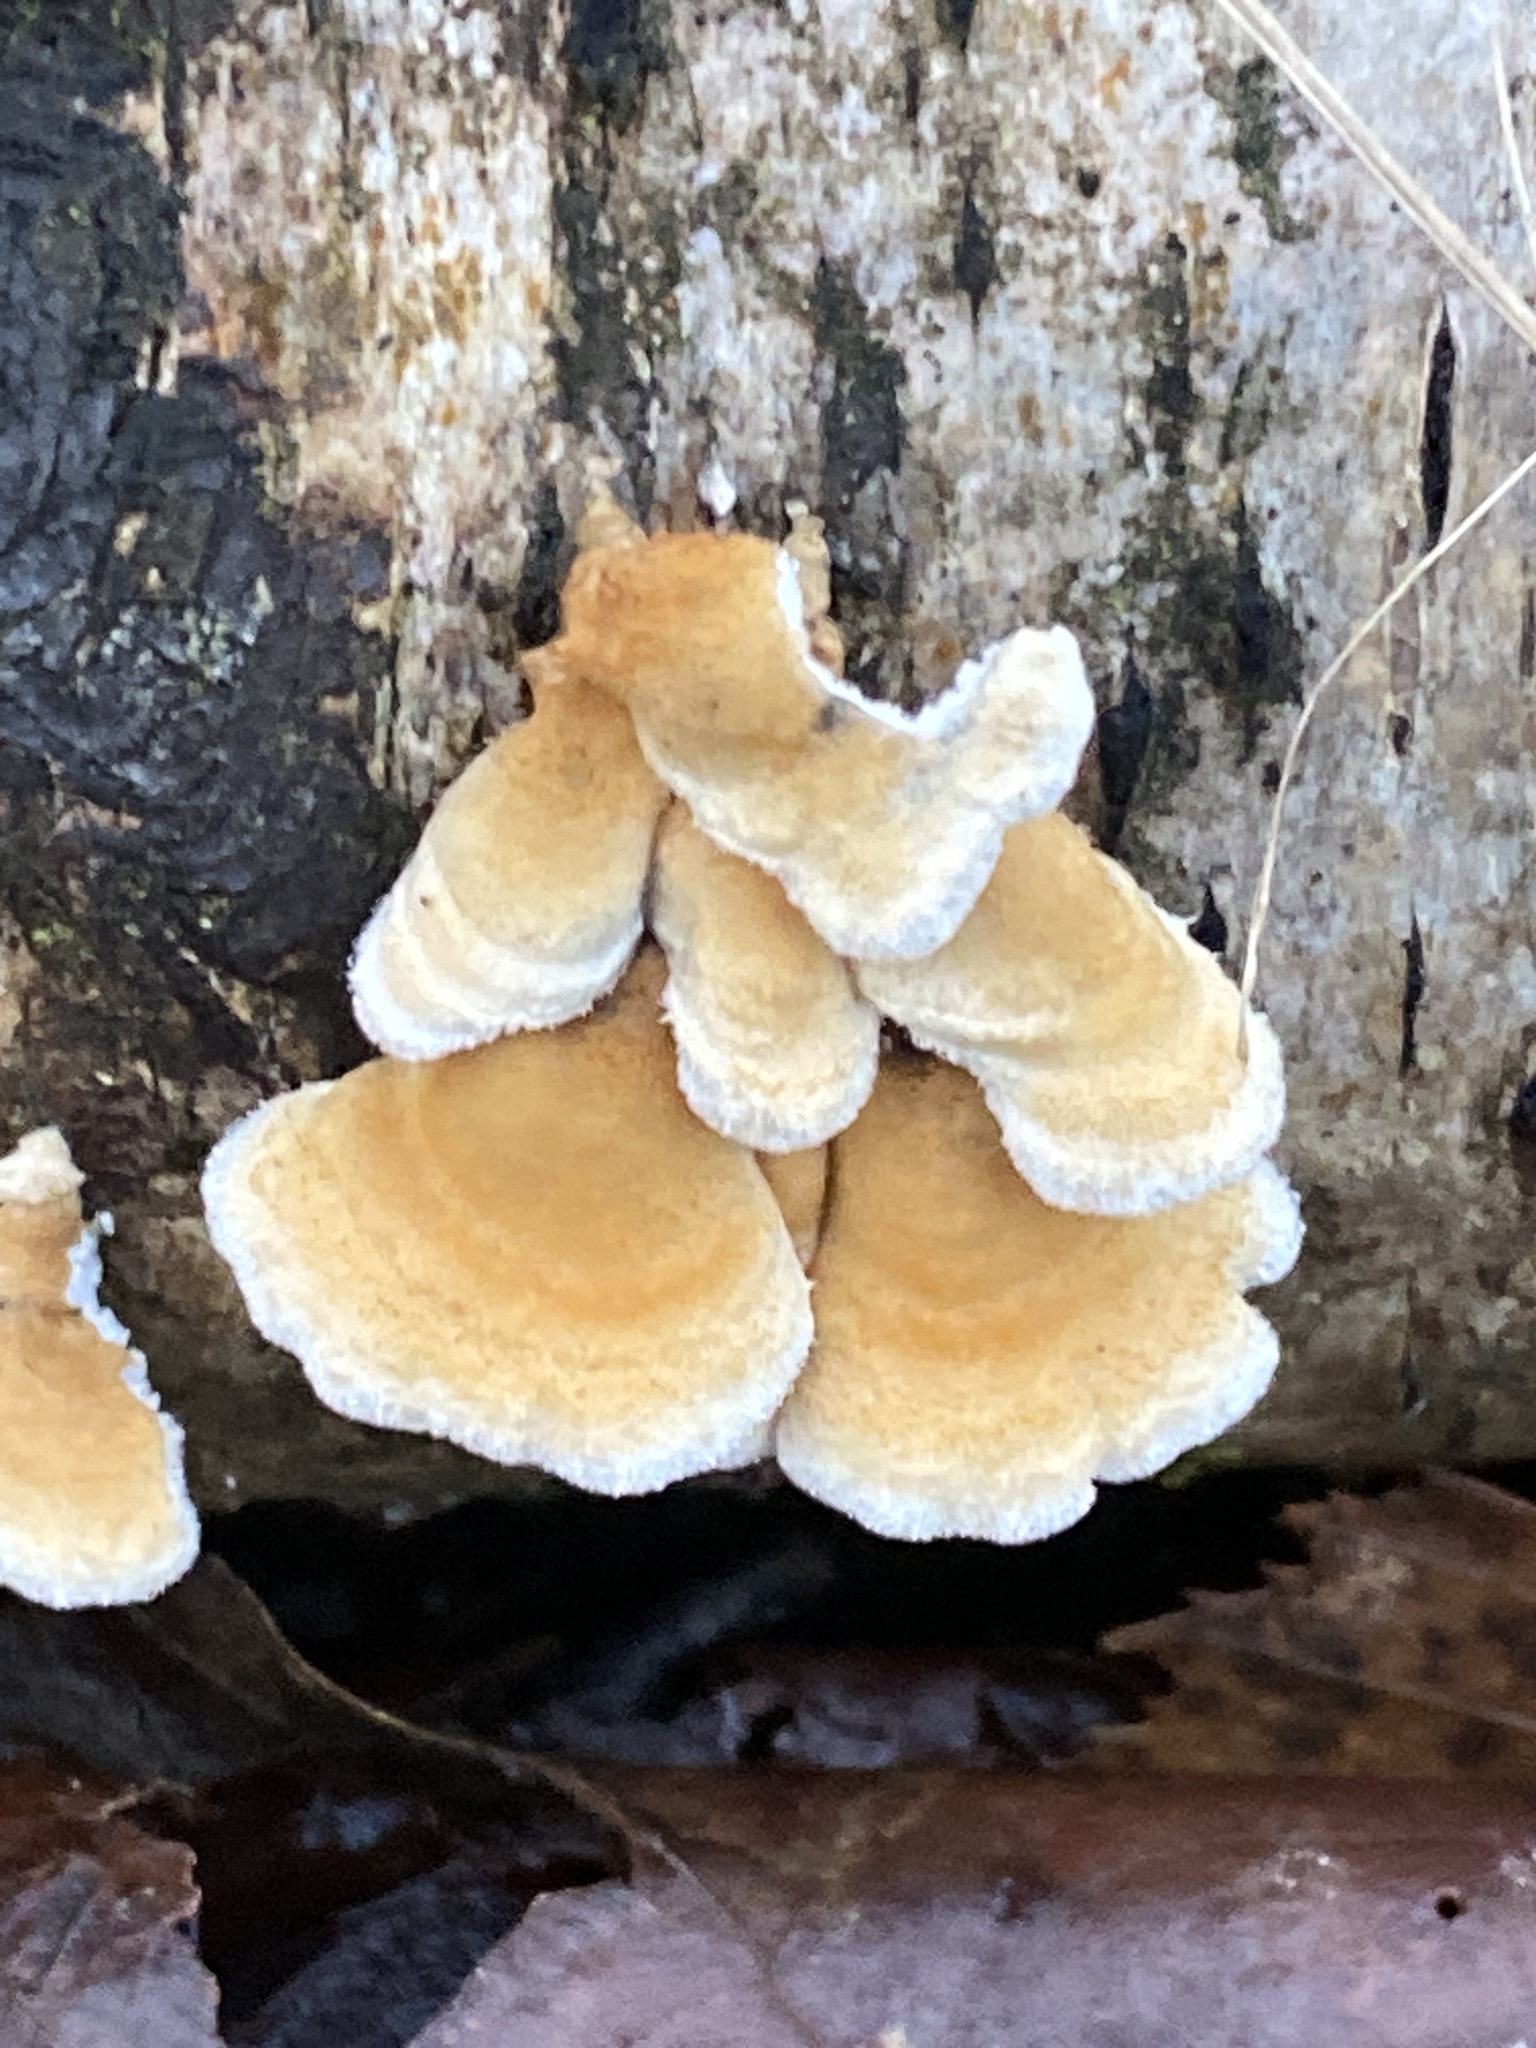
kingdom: Fungi
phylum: Basidiomycota
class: Agaricomycetes
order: Amylocorticiales
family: Amylocorticiaceae
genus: Plicaturopsis
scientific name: Plicaturopsis crispa
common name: Crimped gill
